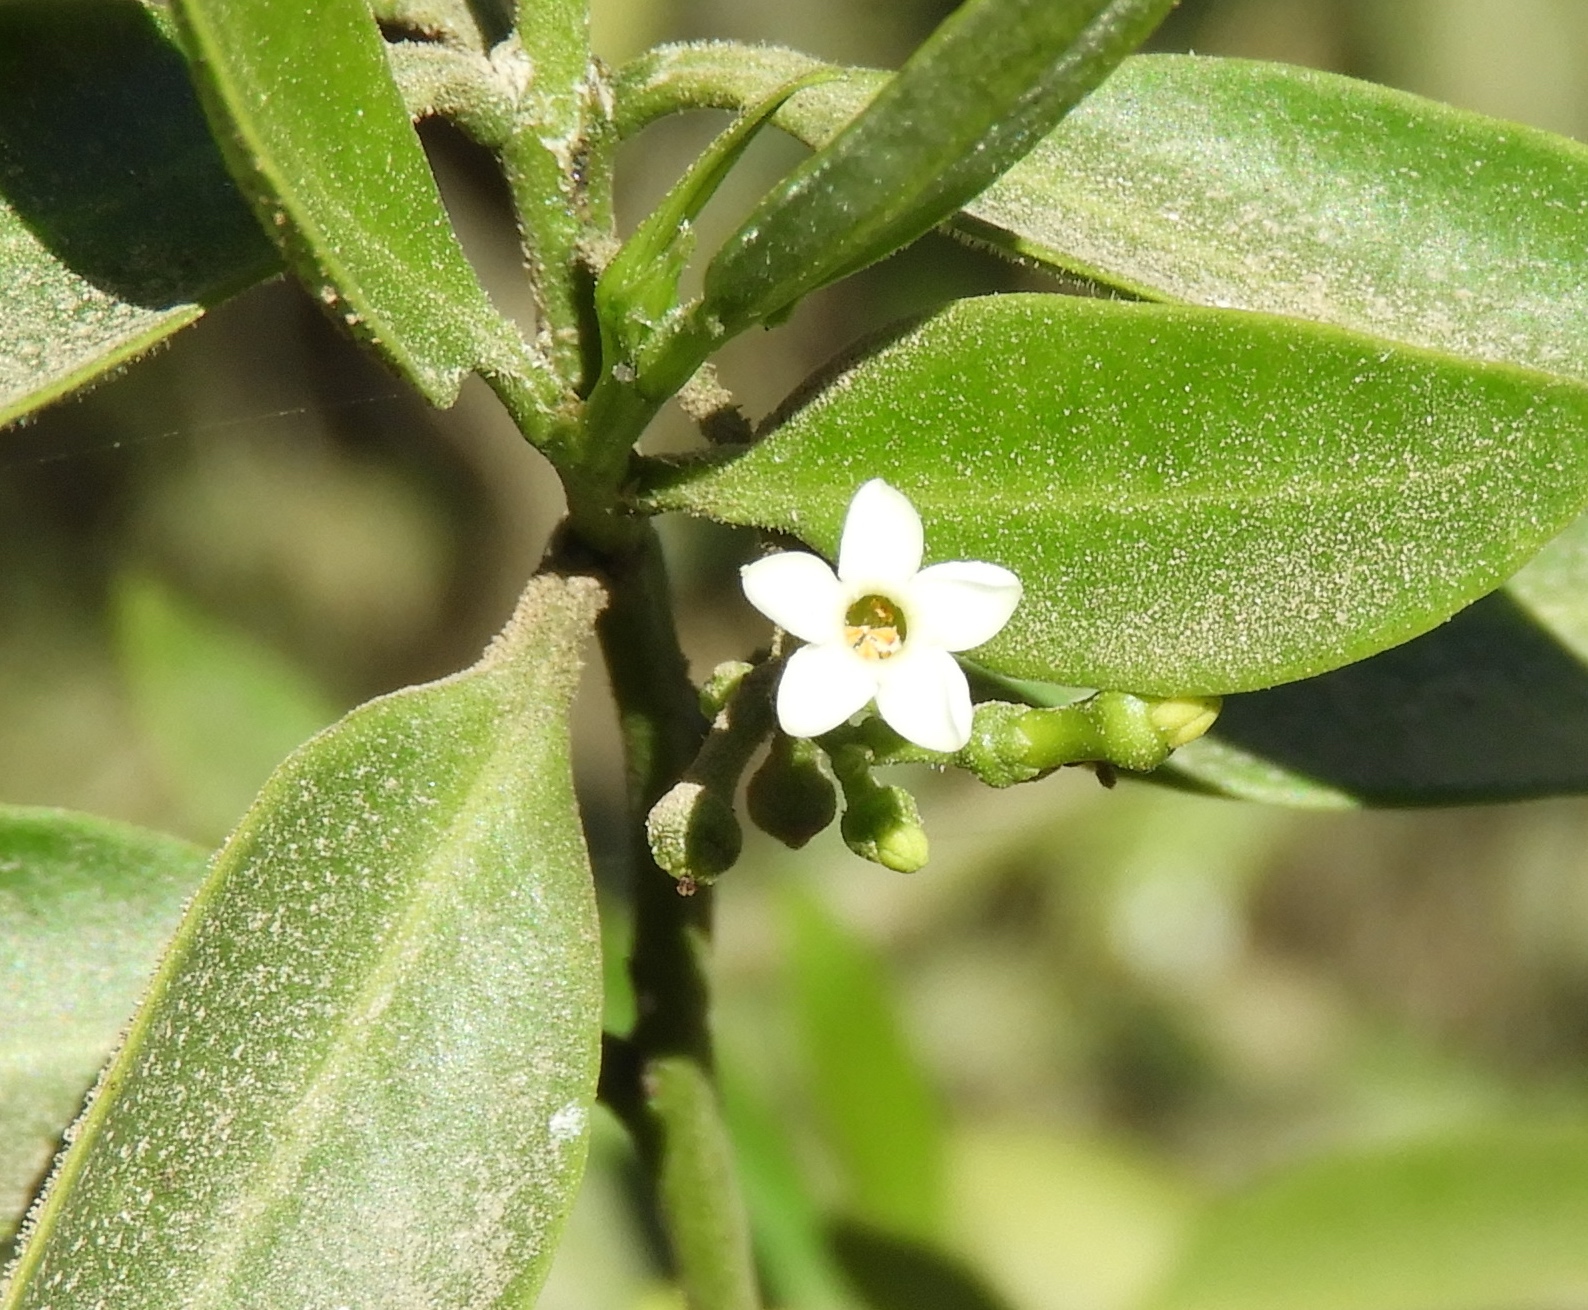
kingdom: Plantae
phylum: Tracheophyta
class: Magnoliopsida
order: Gentianales
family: Apocynaceae
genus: Vallesia
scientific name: Vallesia glabra
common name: Pearlberry
